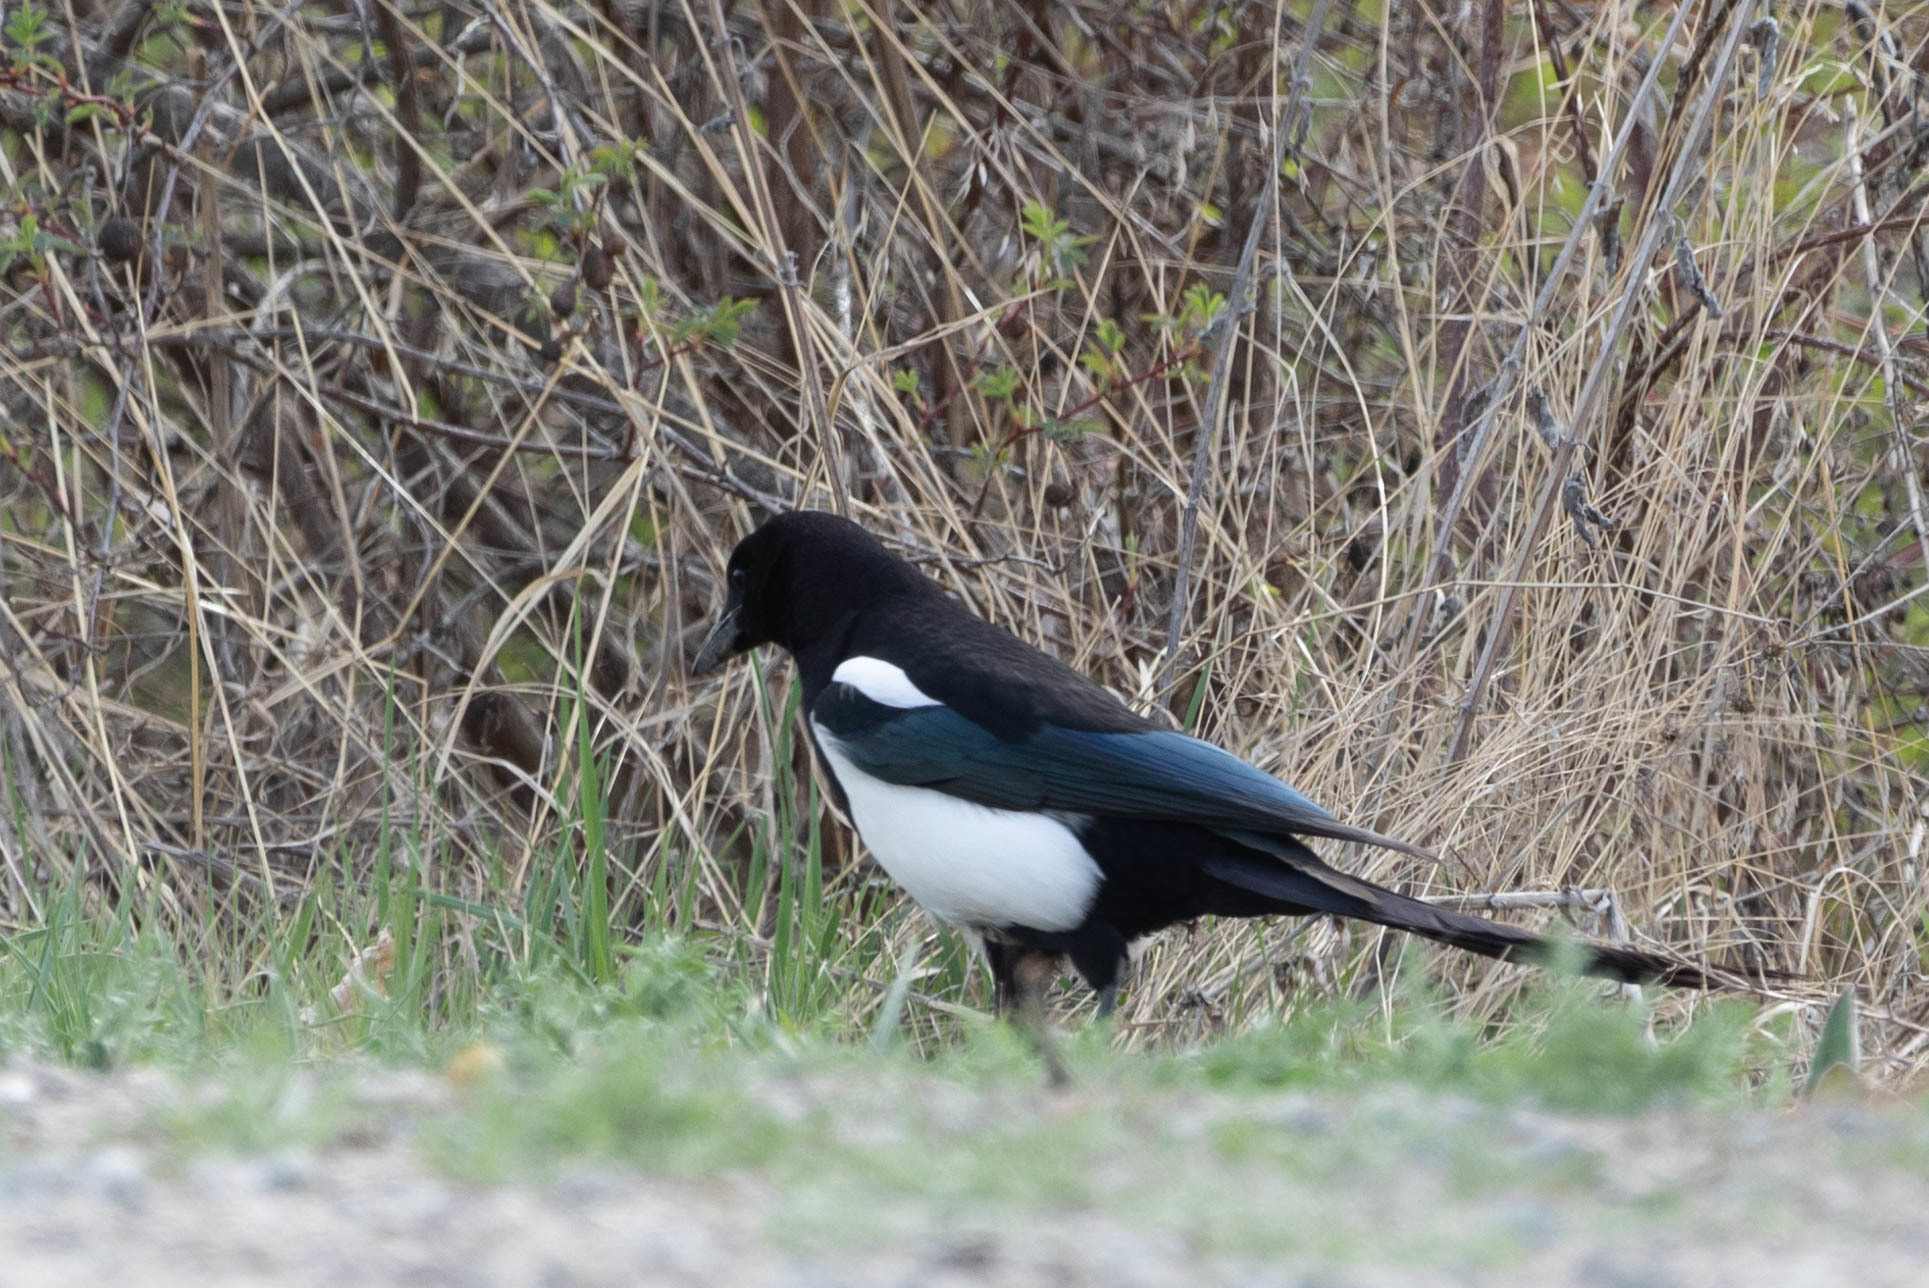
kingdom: Animalia
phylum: Chordata
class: Aves
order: Passeriformes
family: Corvidae
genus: Pica
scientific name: Pica hudsonia
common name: Black-billed magpie
